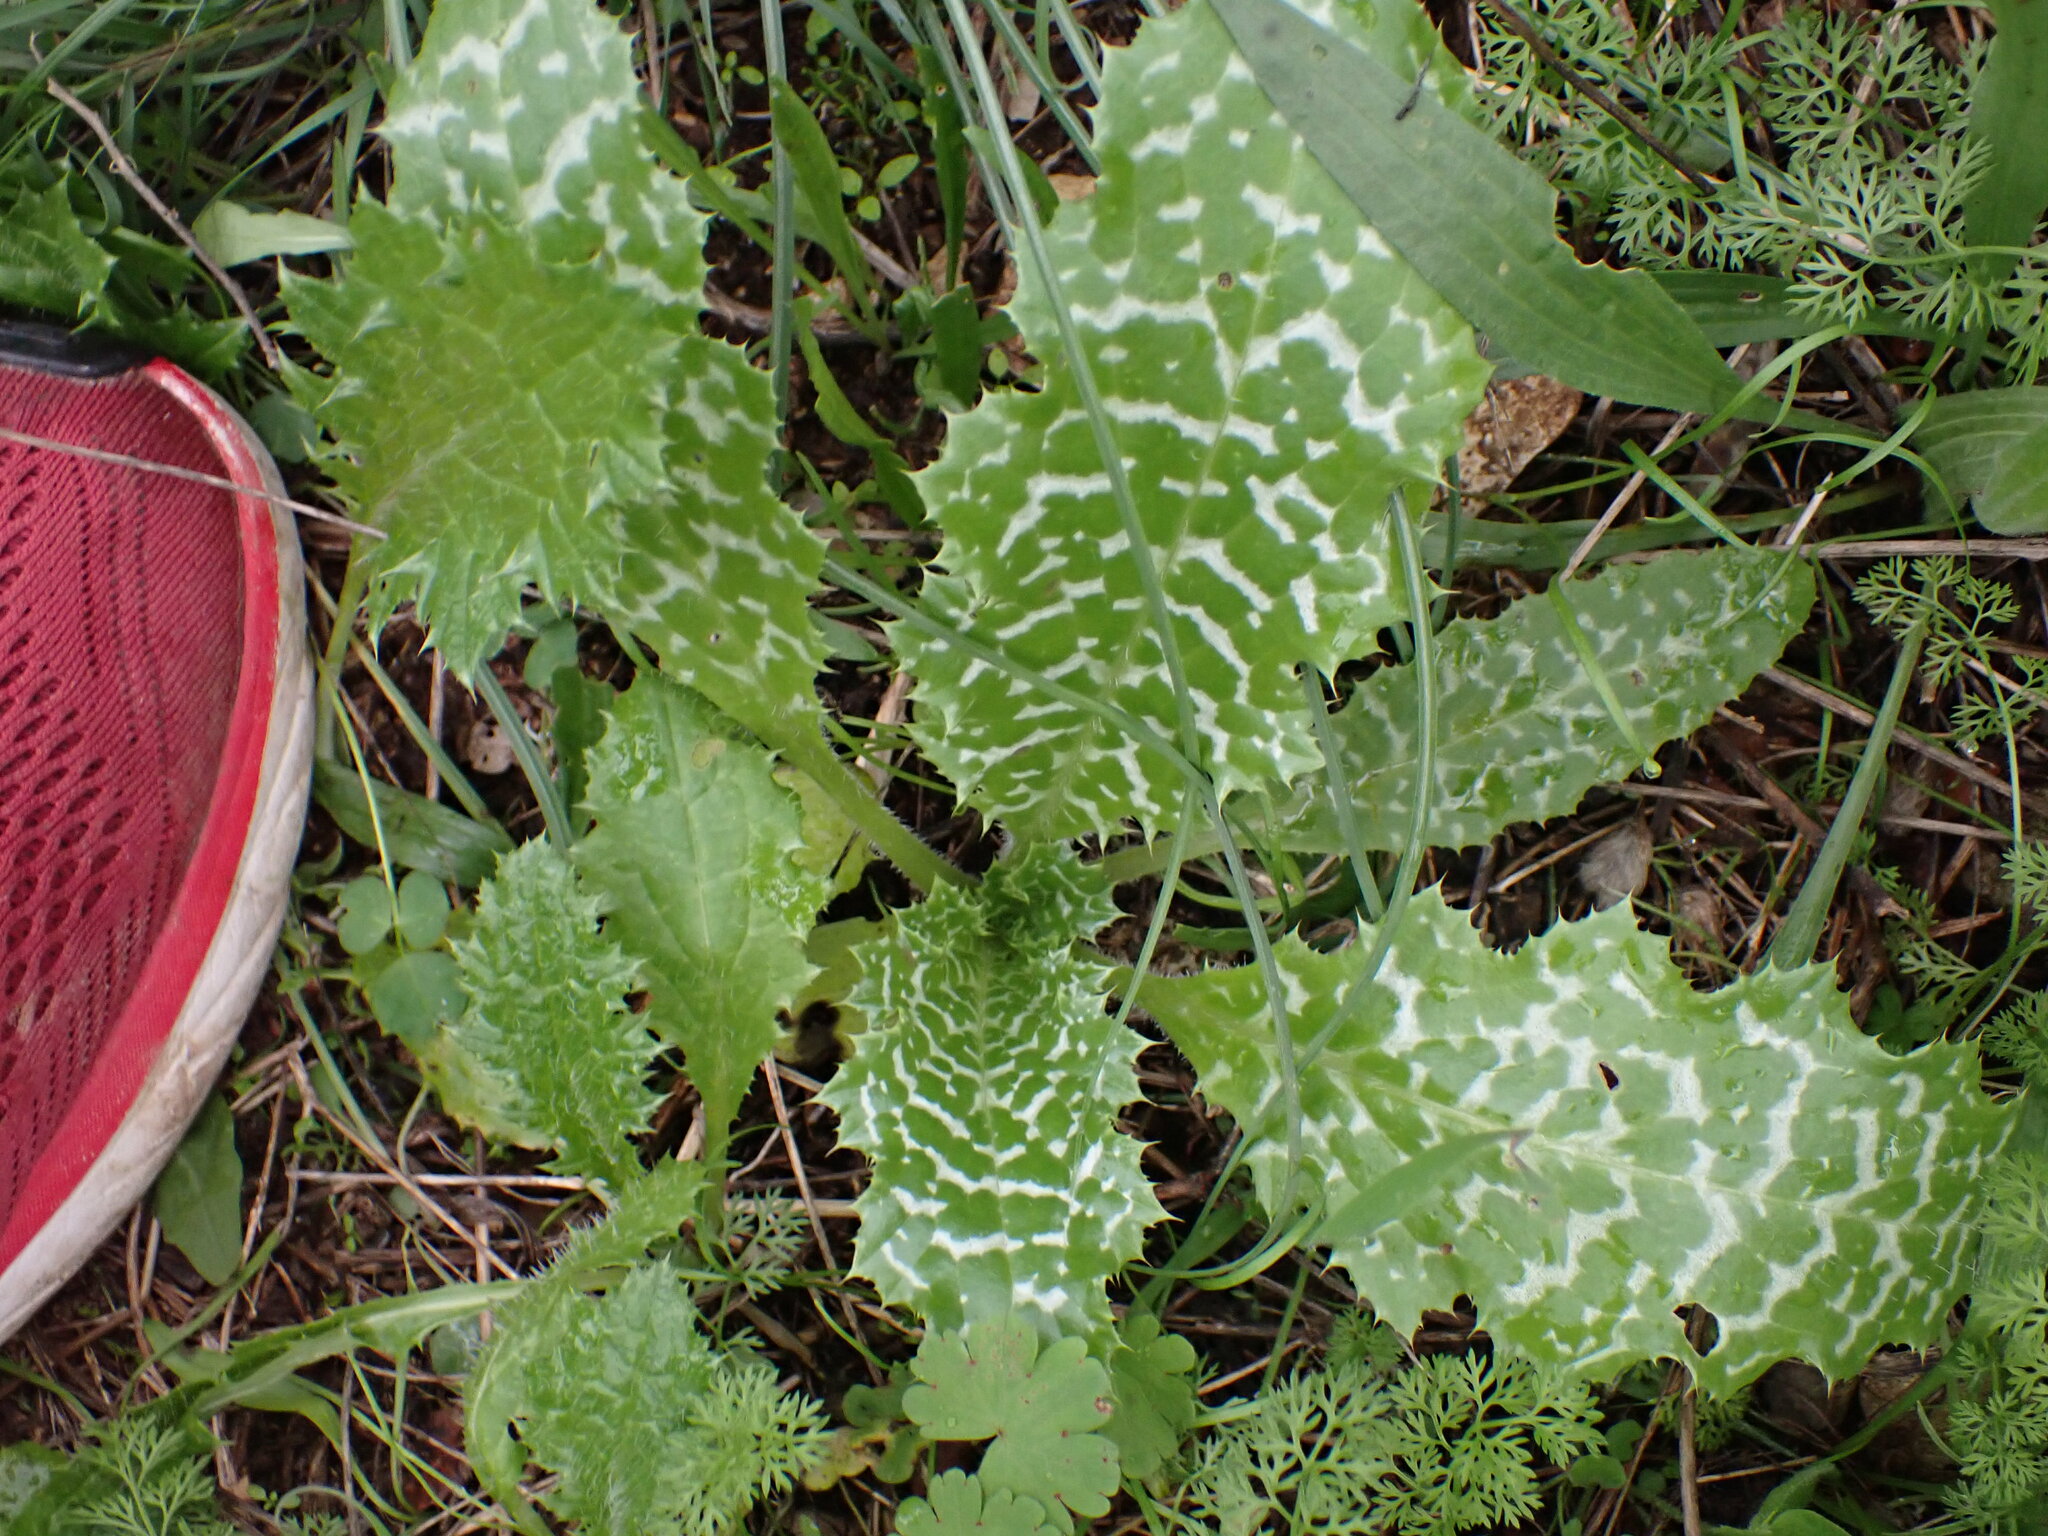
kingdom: Plantae
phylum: Tracheophyta
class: Magnoliopsida
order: Asterales
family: Asteraceae
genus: Silybum
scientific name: Silybum marianum
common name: Milk thistle
